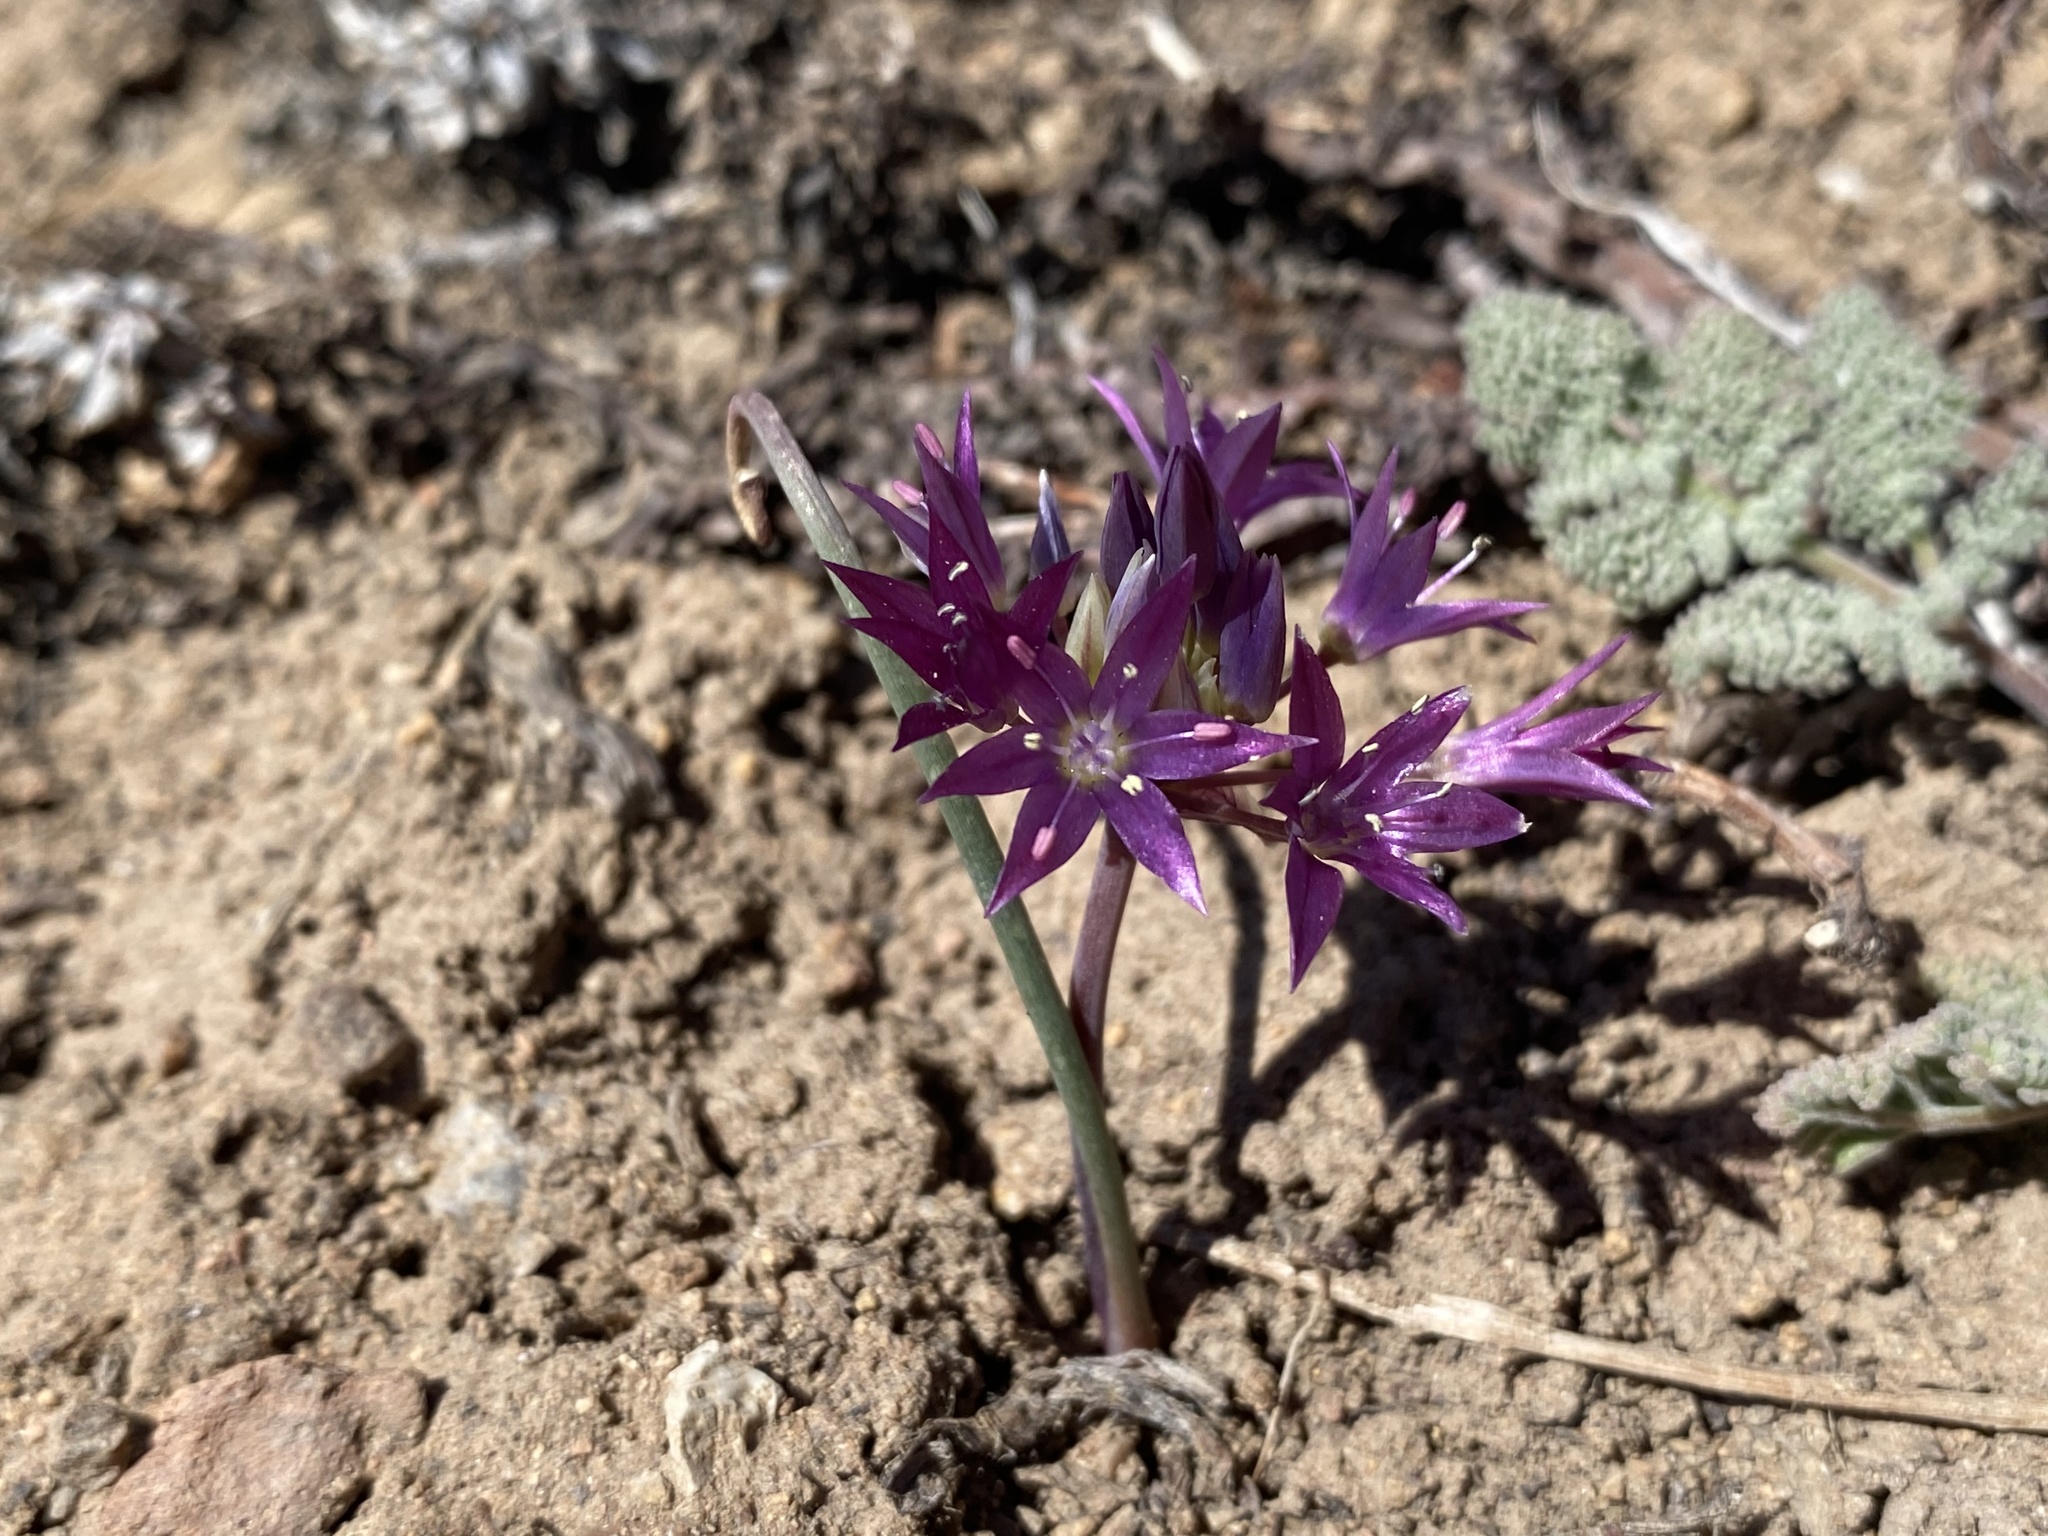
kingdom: Plantae
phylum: Tracheophyta
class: Liliopsida
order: Asparagales
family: Amaryllidaceae
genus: Allium
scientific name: Allium atrorubens
